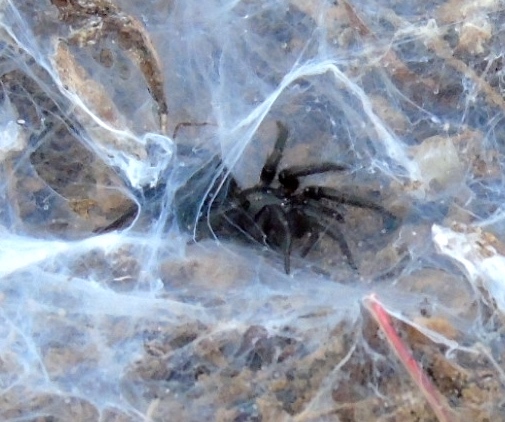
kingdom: Animalia
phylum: Arthropoda
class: Arachnida
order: Araneae
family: Euagridae
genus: Euagrus
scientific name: Euagrus gertschi
